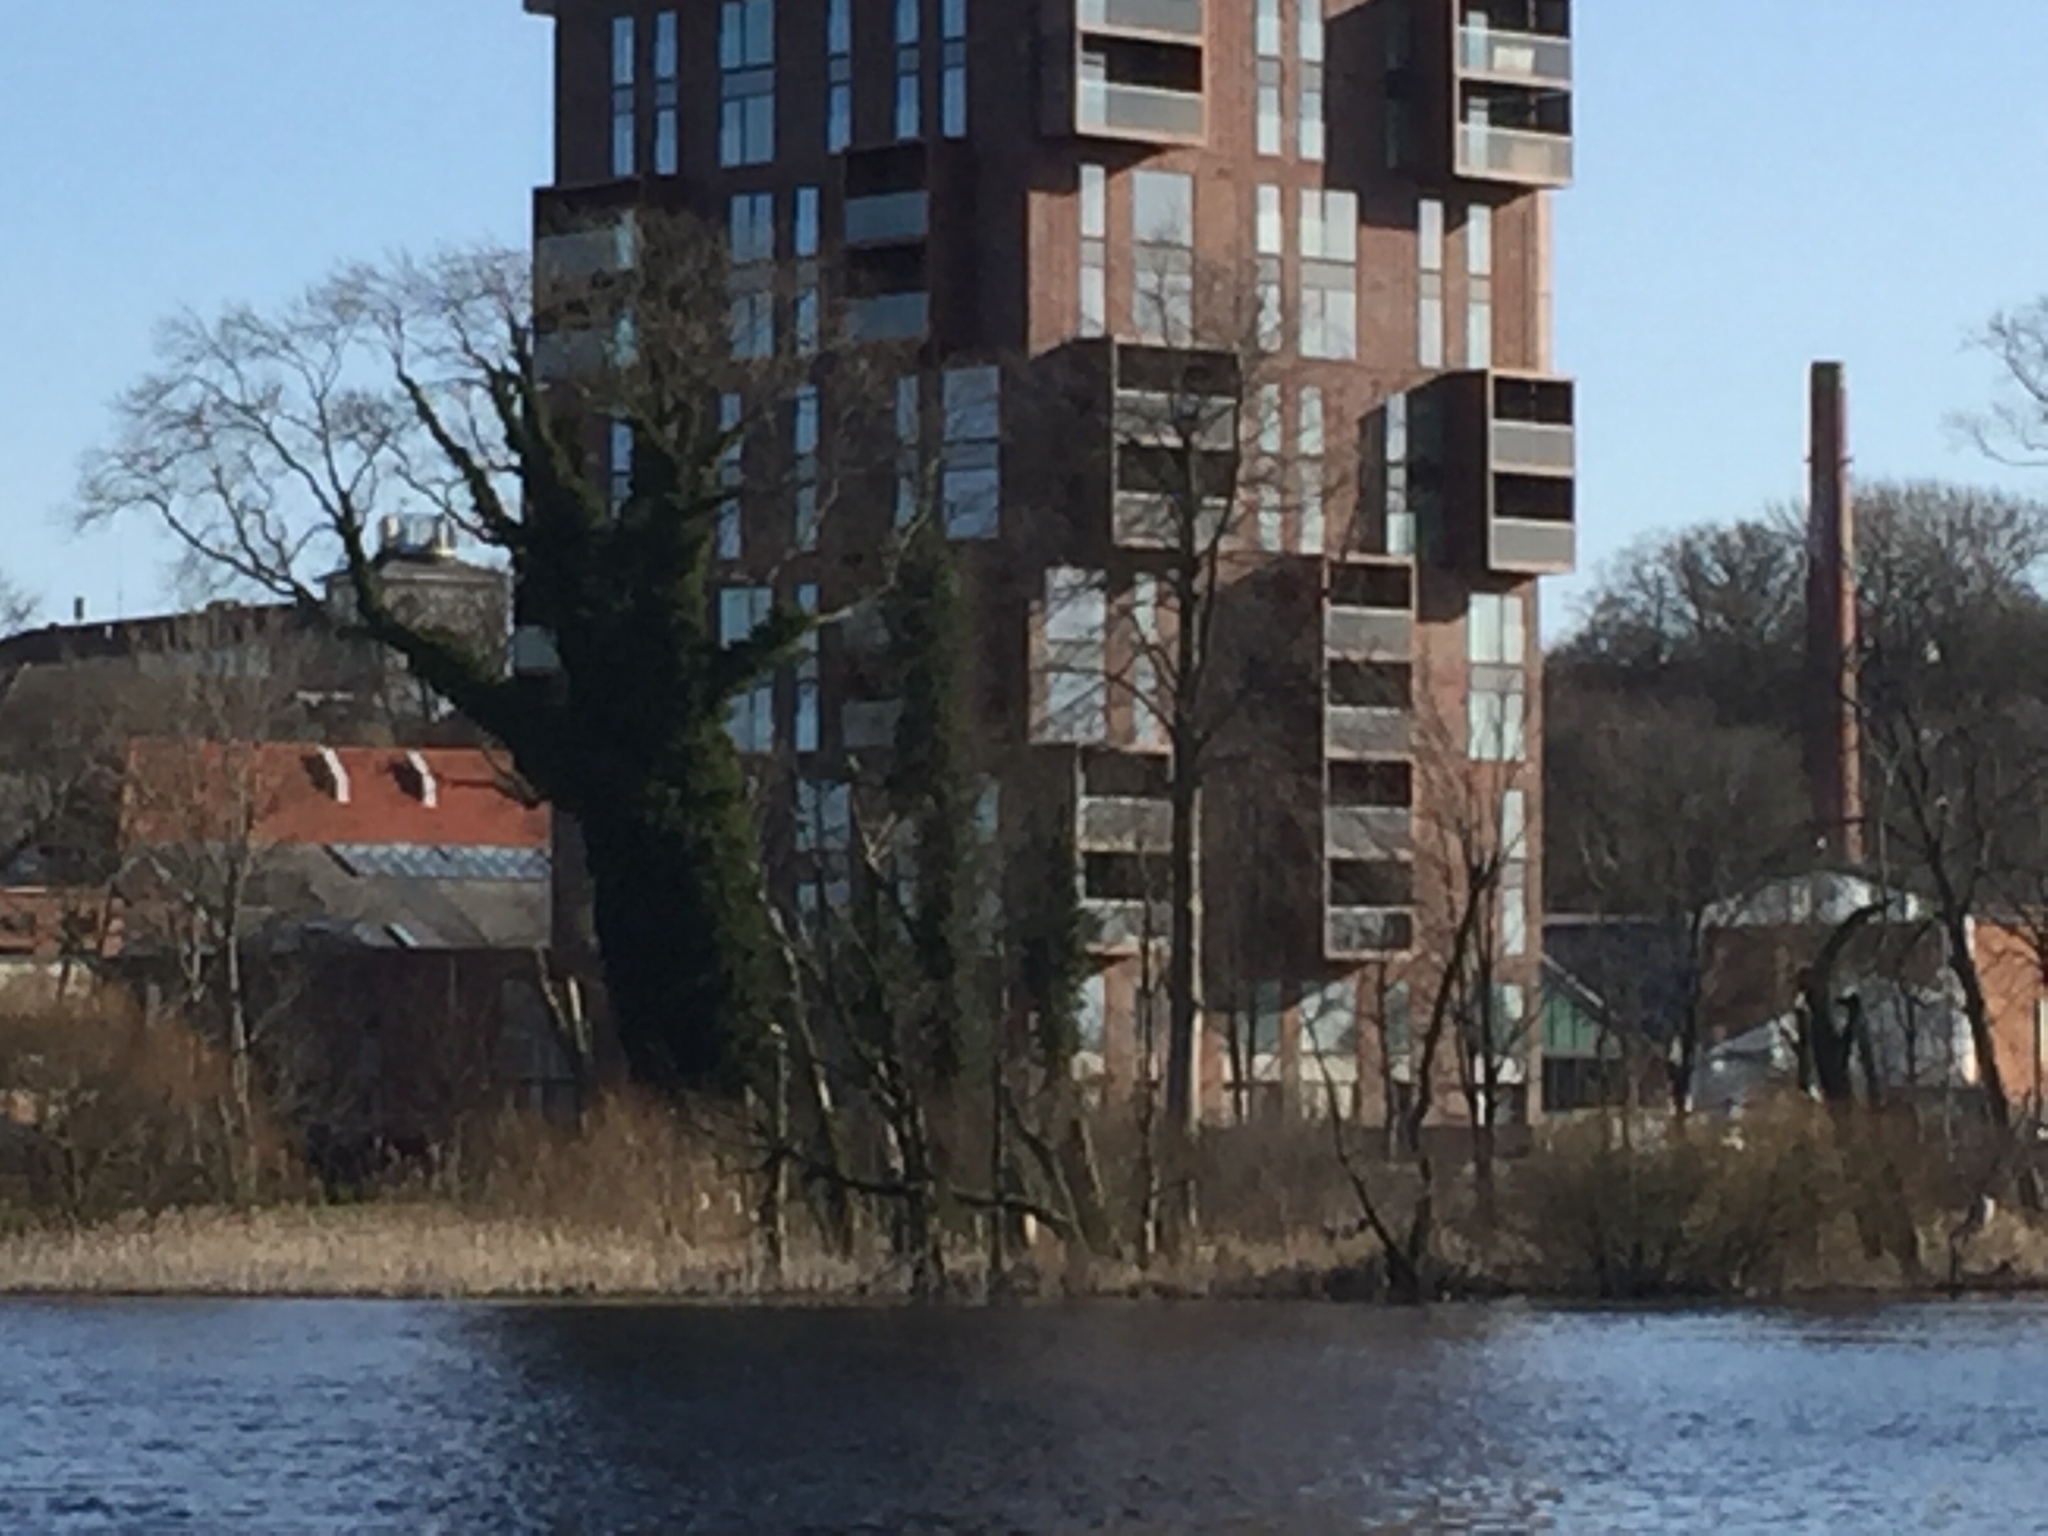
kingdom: Animalia
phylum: Chordata
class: Aves
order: Suliformes
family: Phalacrocoracidae
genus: Phalacrocorax
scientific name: Phalacrocorax carbo
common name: Great cormorant
